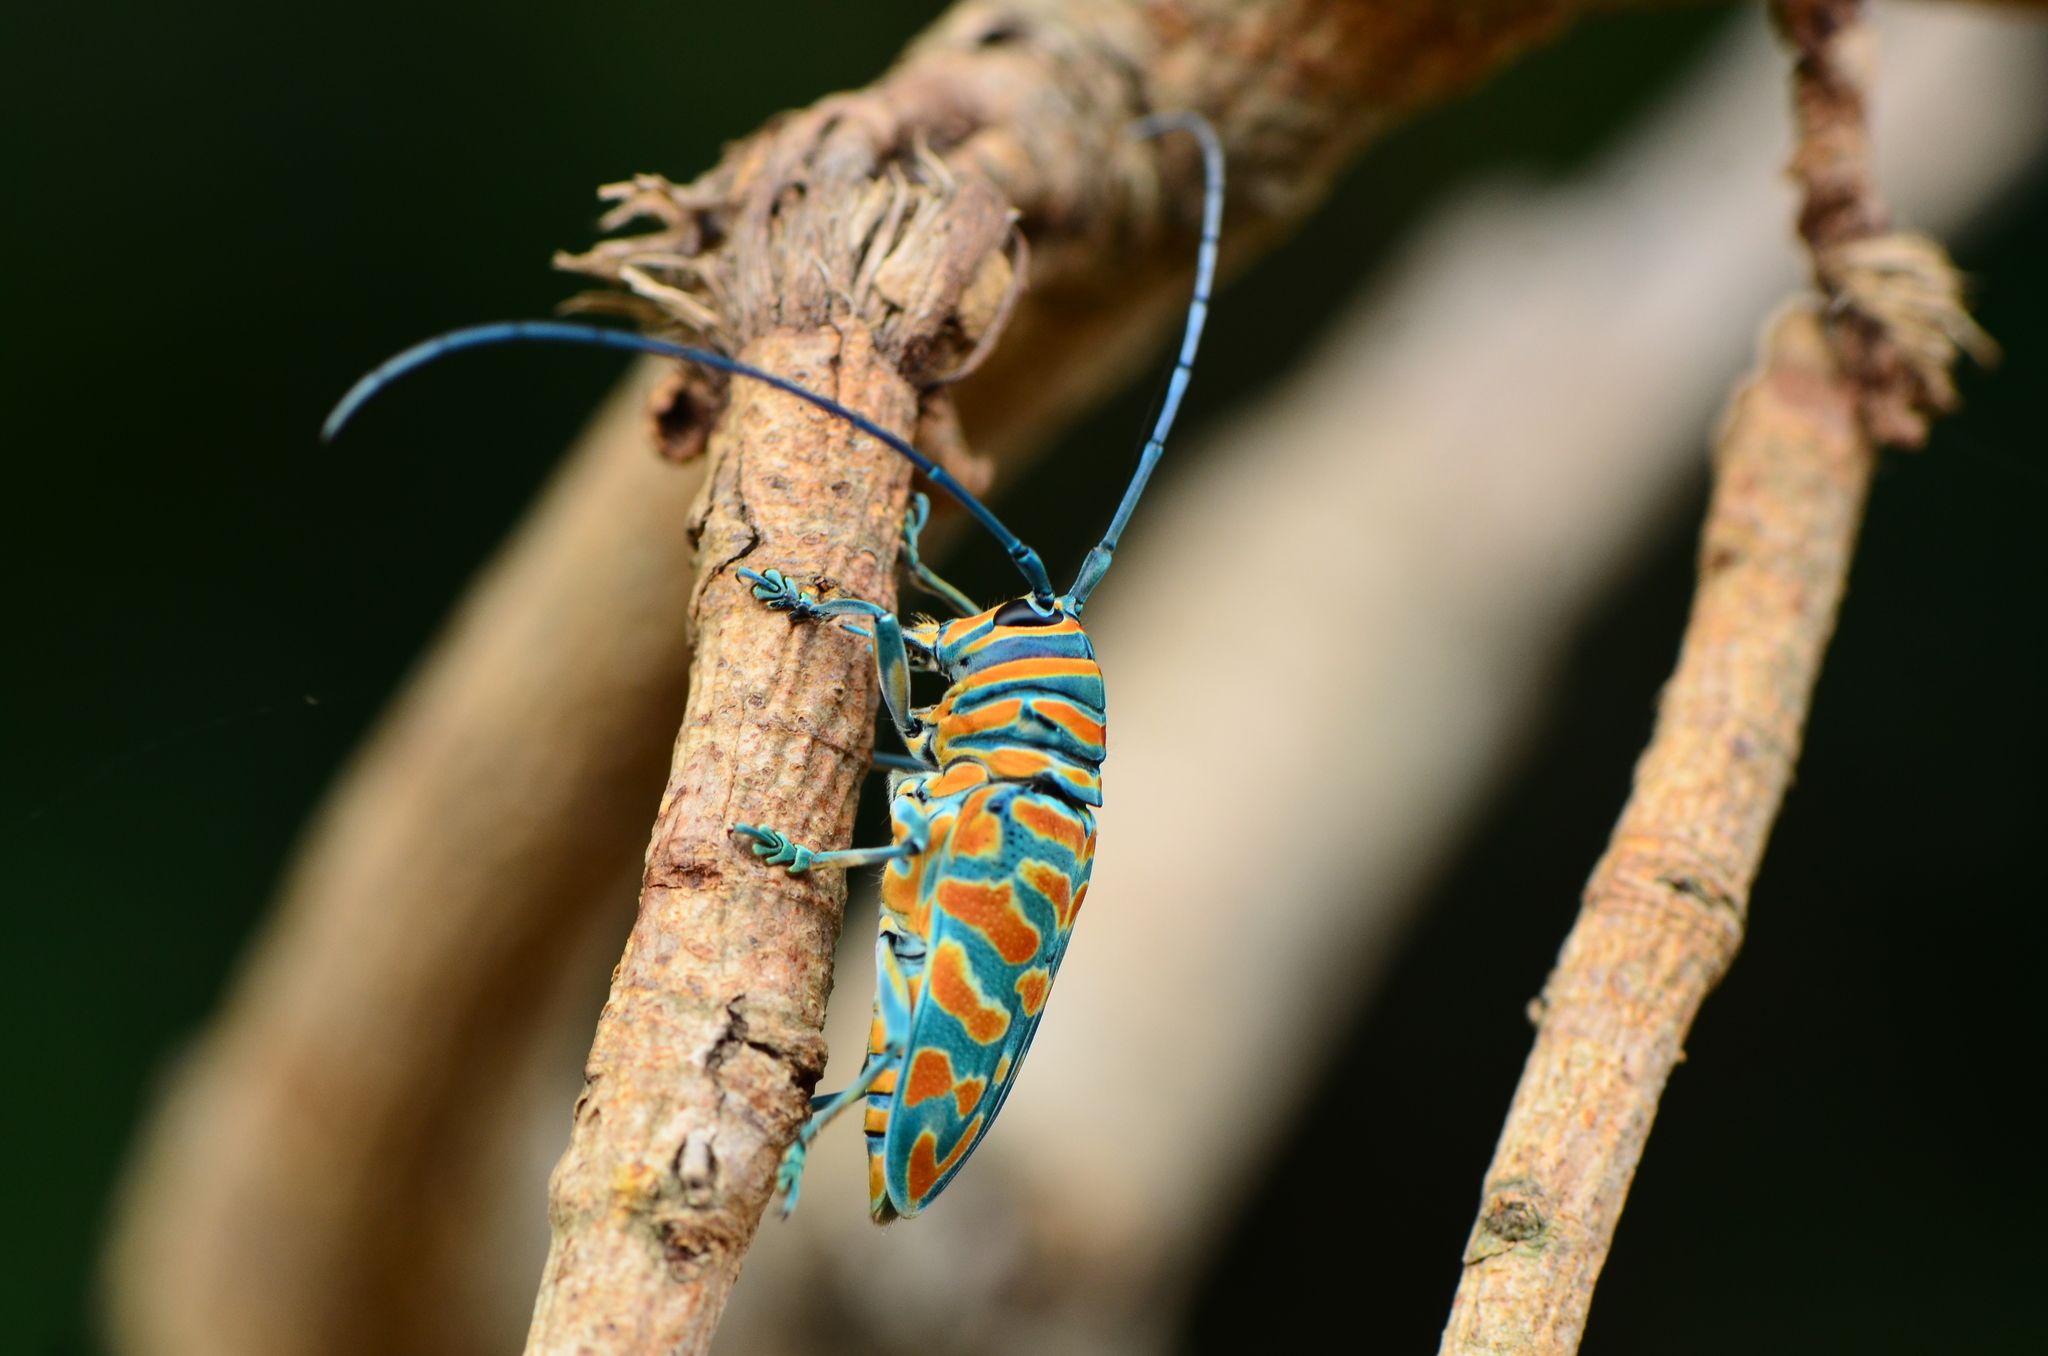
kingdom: Animalia
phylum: Arthropoda
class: Insecta
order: Coleoptera
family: Cerambycidae
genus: Sternotomis
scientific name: Sternotomis bohemani
